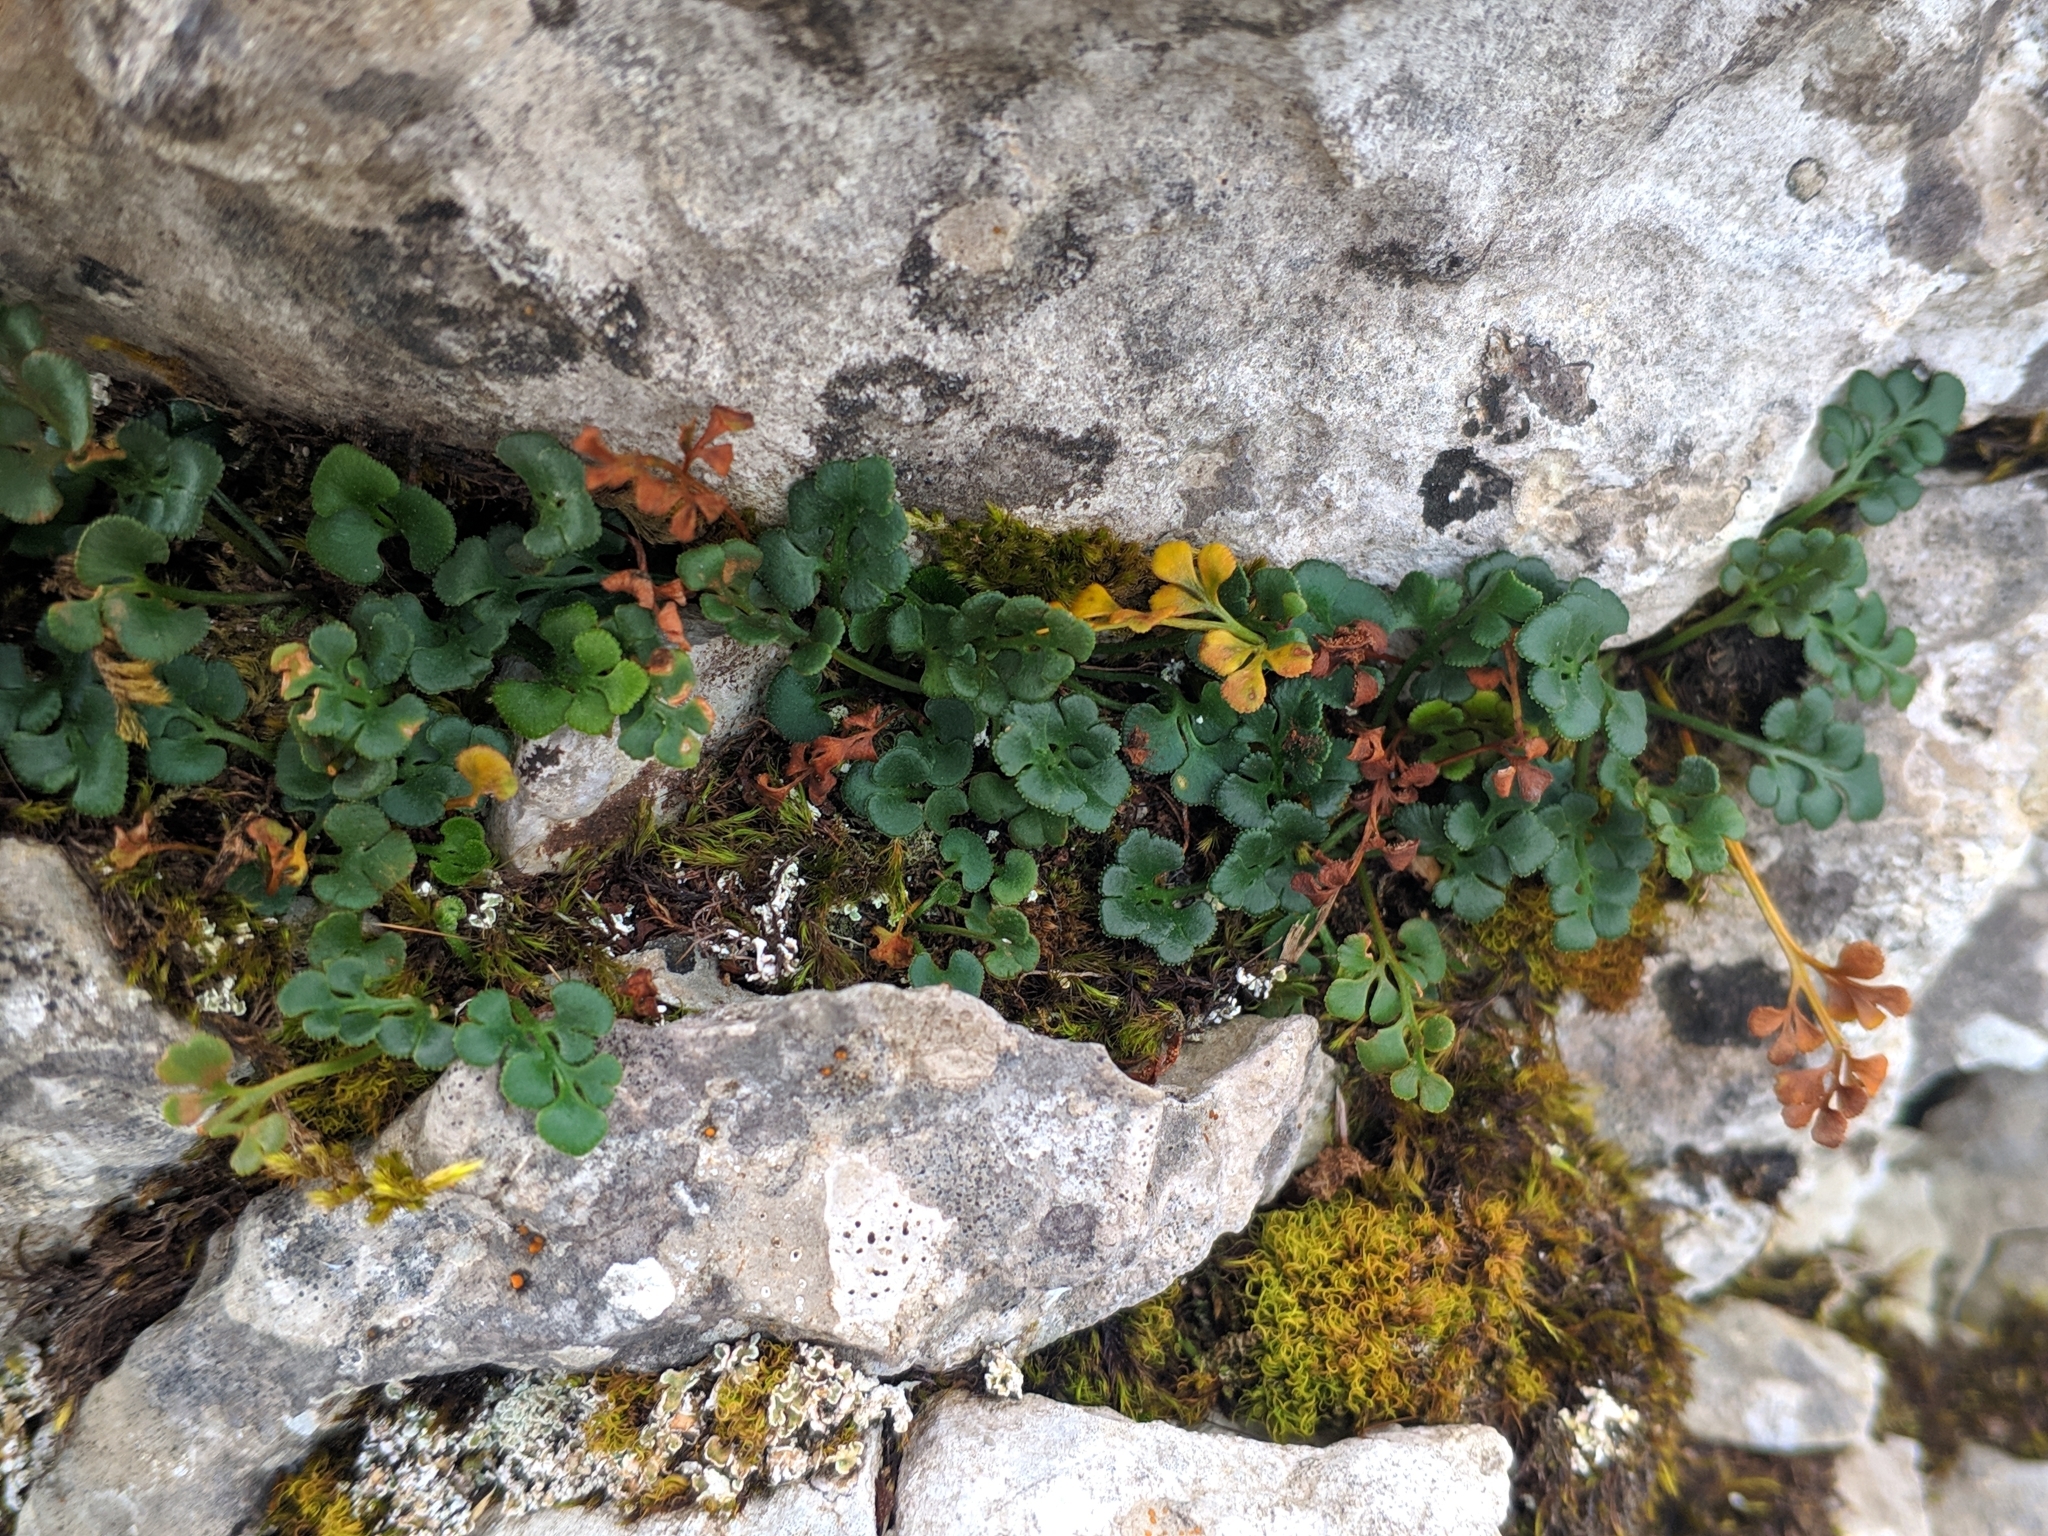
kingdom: Plantae
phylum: Tracheophyta
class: Polypodiopsida
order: Polypodiales
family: Aspleniaceae
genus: Asplenium
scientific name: Asplenium ruta-muraria
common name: Wall-rue
